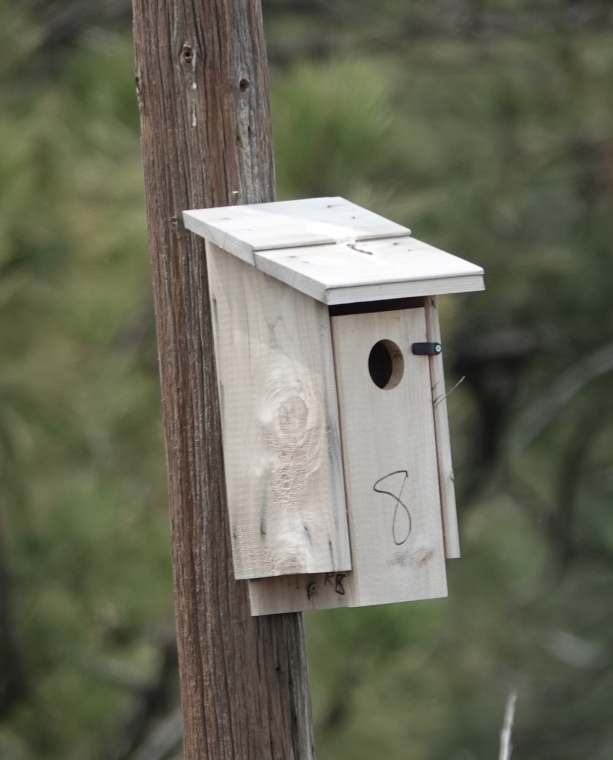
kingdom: Animalia
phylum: Chordata
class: Aves
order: Passeriformes
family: Turdidae
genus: Sialia
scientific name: Sialia sialis
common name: Eastern bluebird
